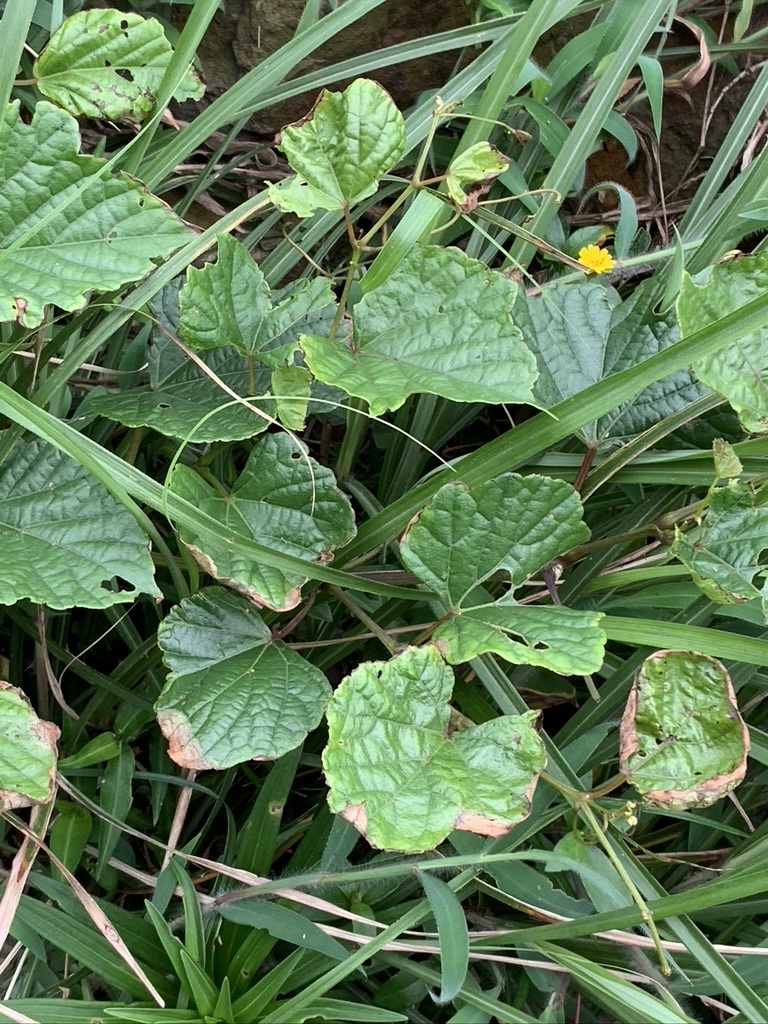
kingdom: Plantae
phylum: Tracheophyta
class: Magnoliopsida
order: Vitales
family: Vitaceae
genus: Ampelopsis
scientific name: Ampelopsis glandulosa
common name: Amur peppervine
